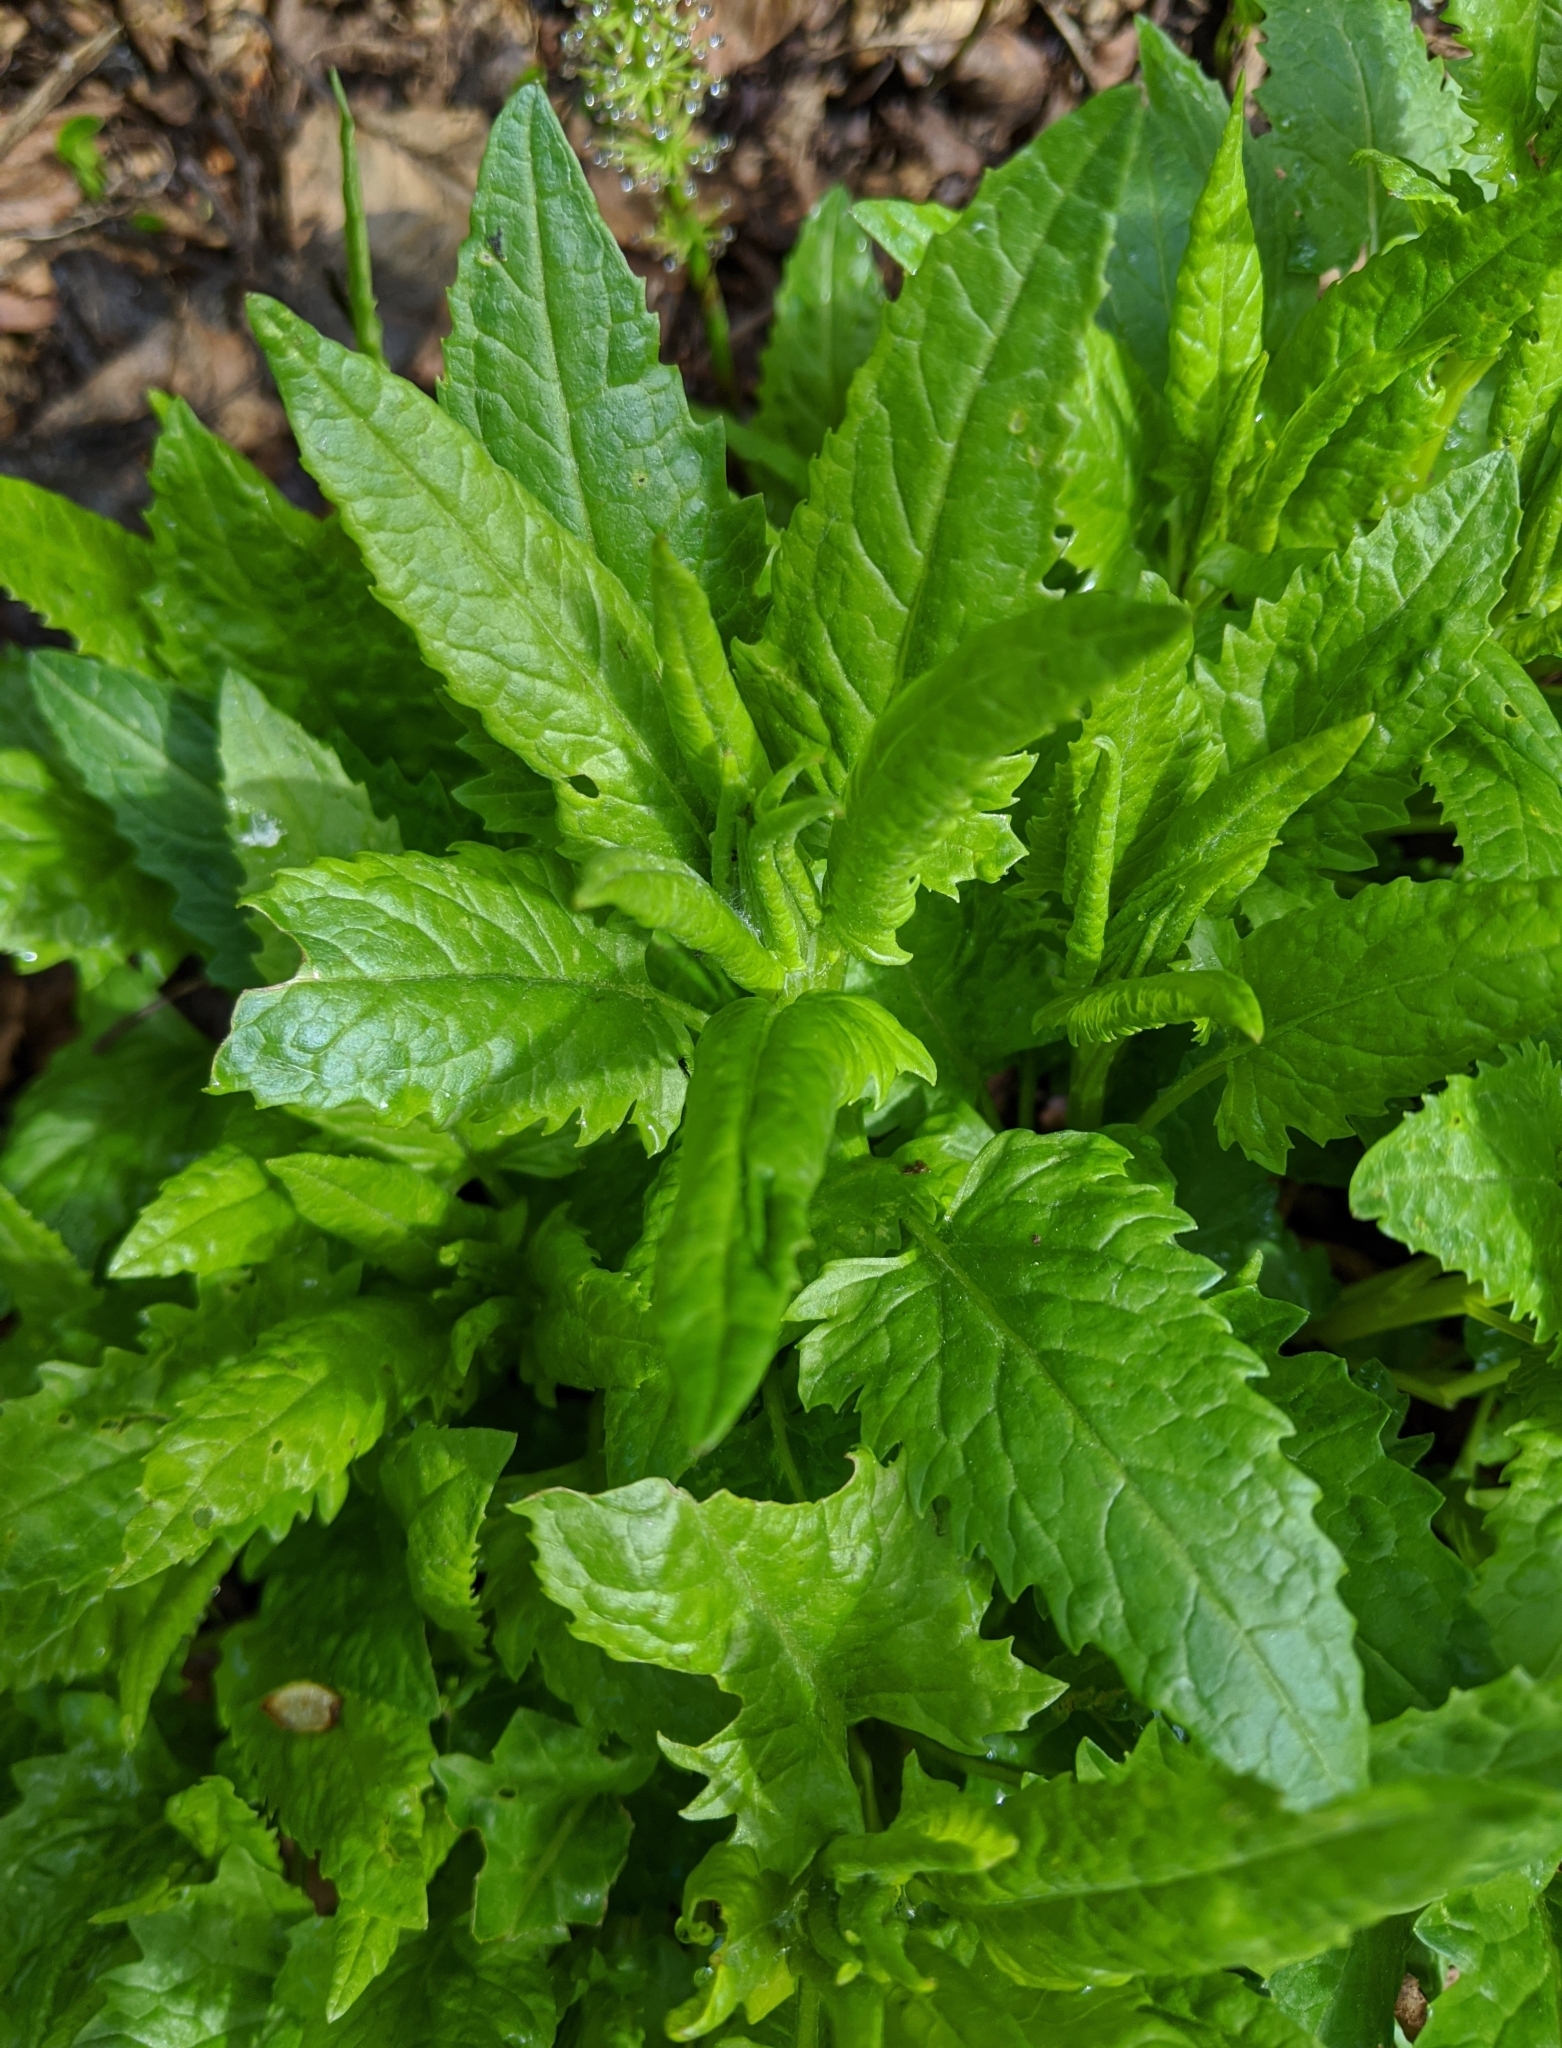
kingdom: Plantae
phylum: Tracheophyta
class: Magnoliopsida
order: Asterales
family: Asteraceae
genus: Senecio
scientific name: Senecio triangularis
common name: Arrowleaf butterweed
